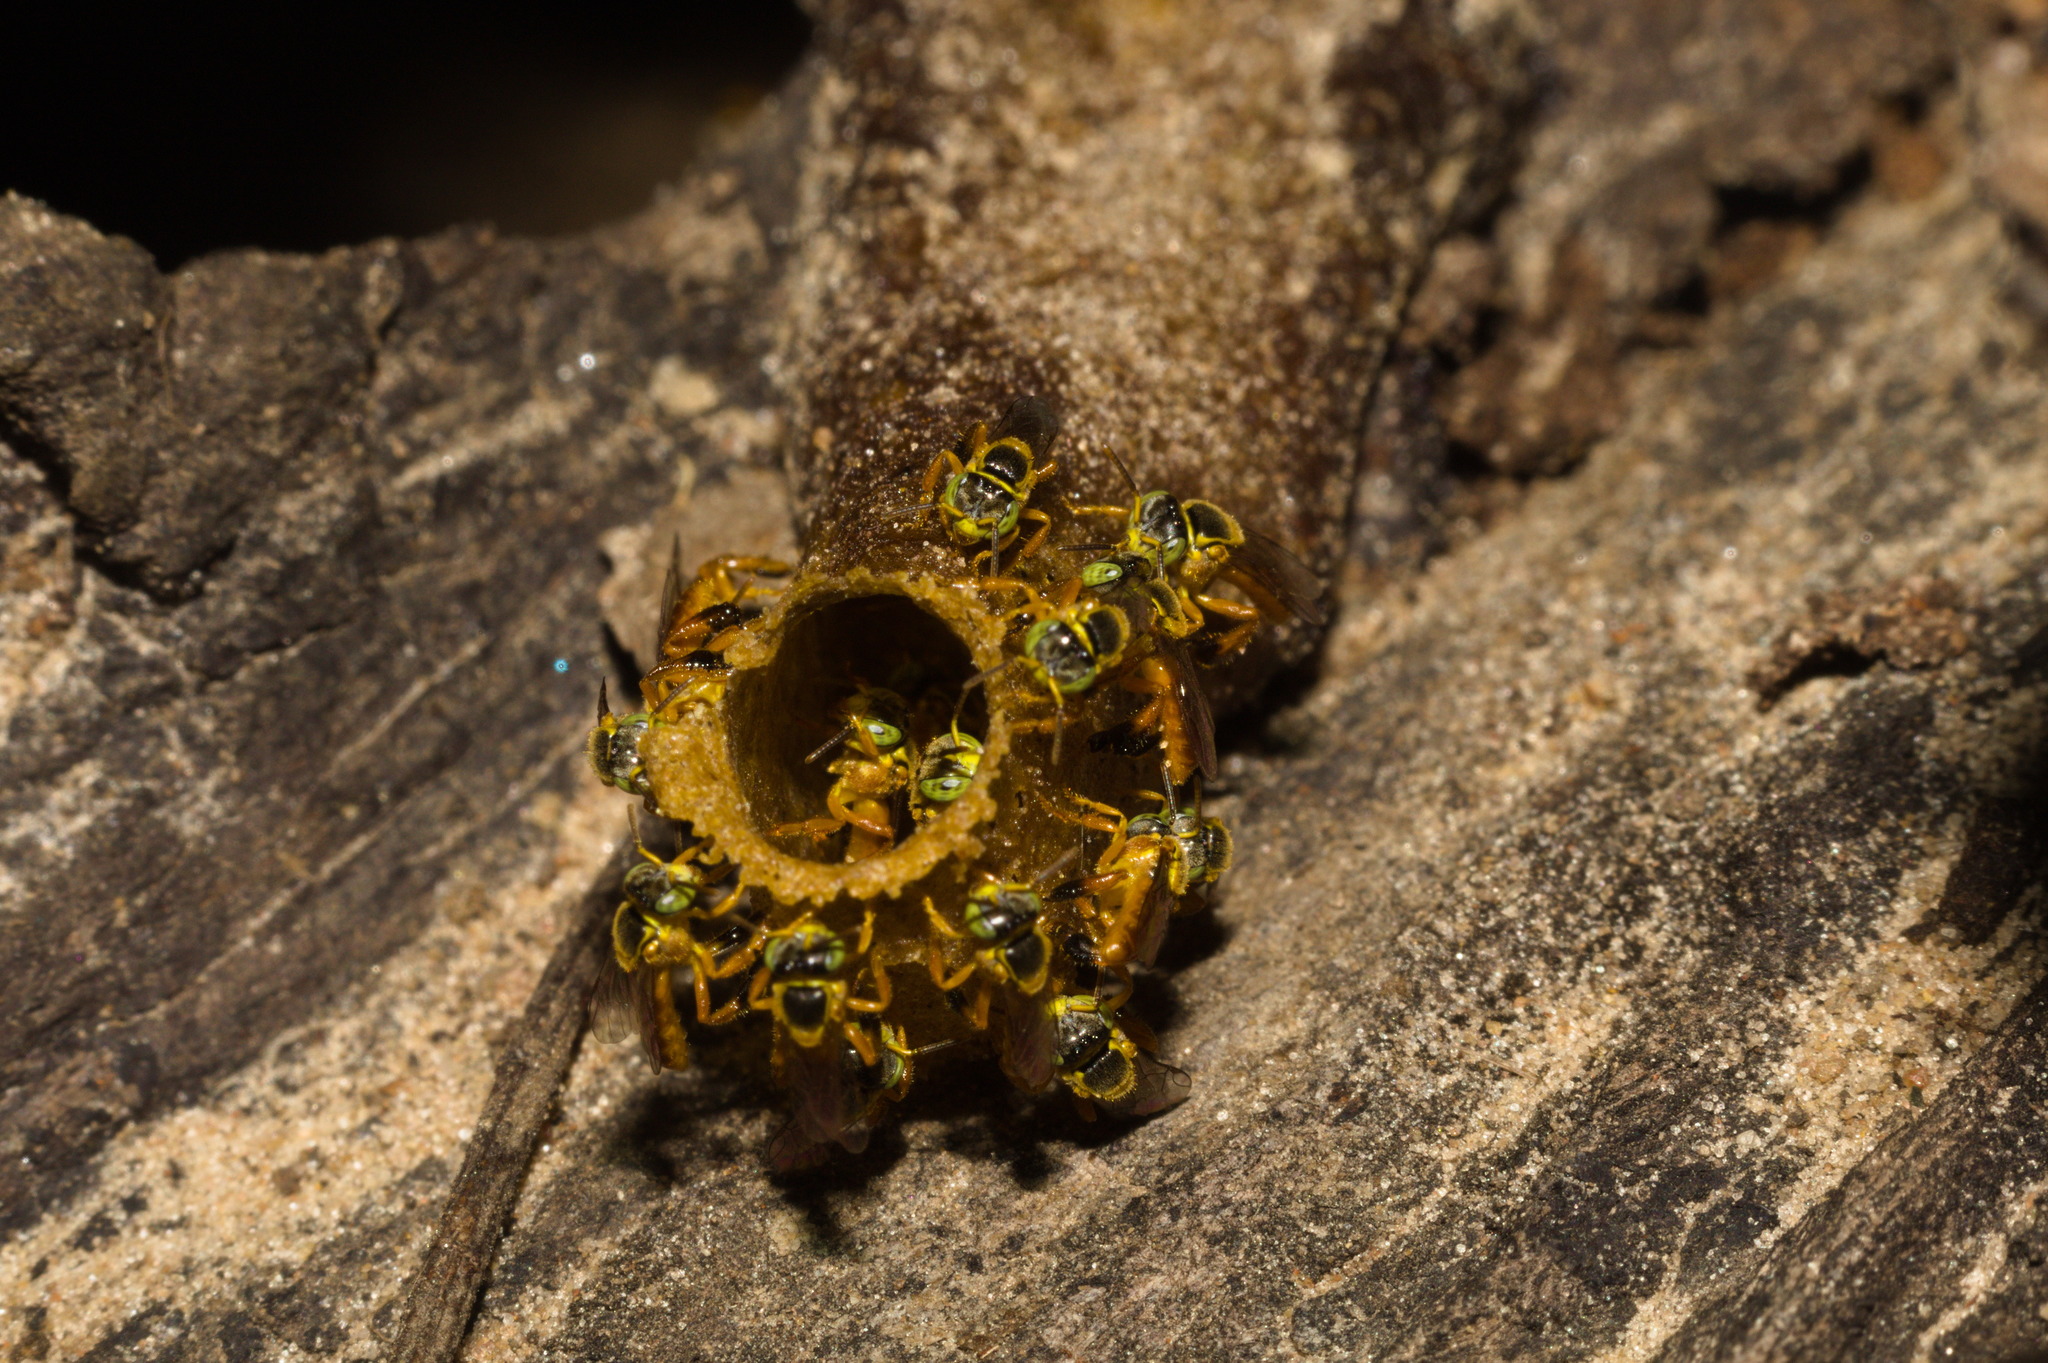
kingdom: Animalia
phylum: Arthropoda
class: Insecta
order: Hymenoptera
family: Apidae
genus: Tetragonisca
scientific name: Tetragonisca fiebrigi
